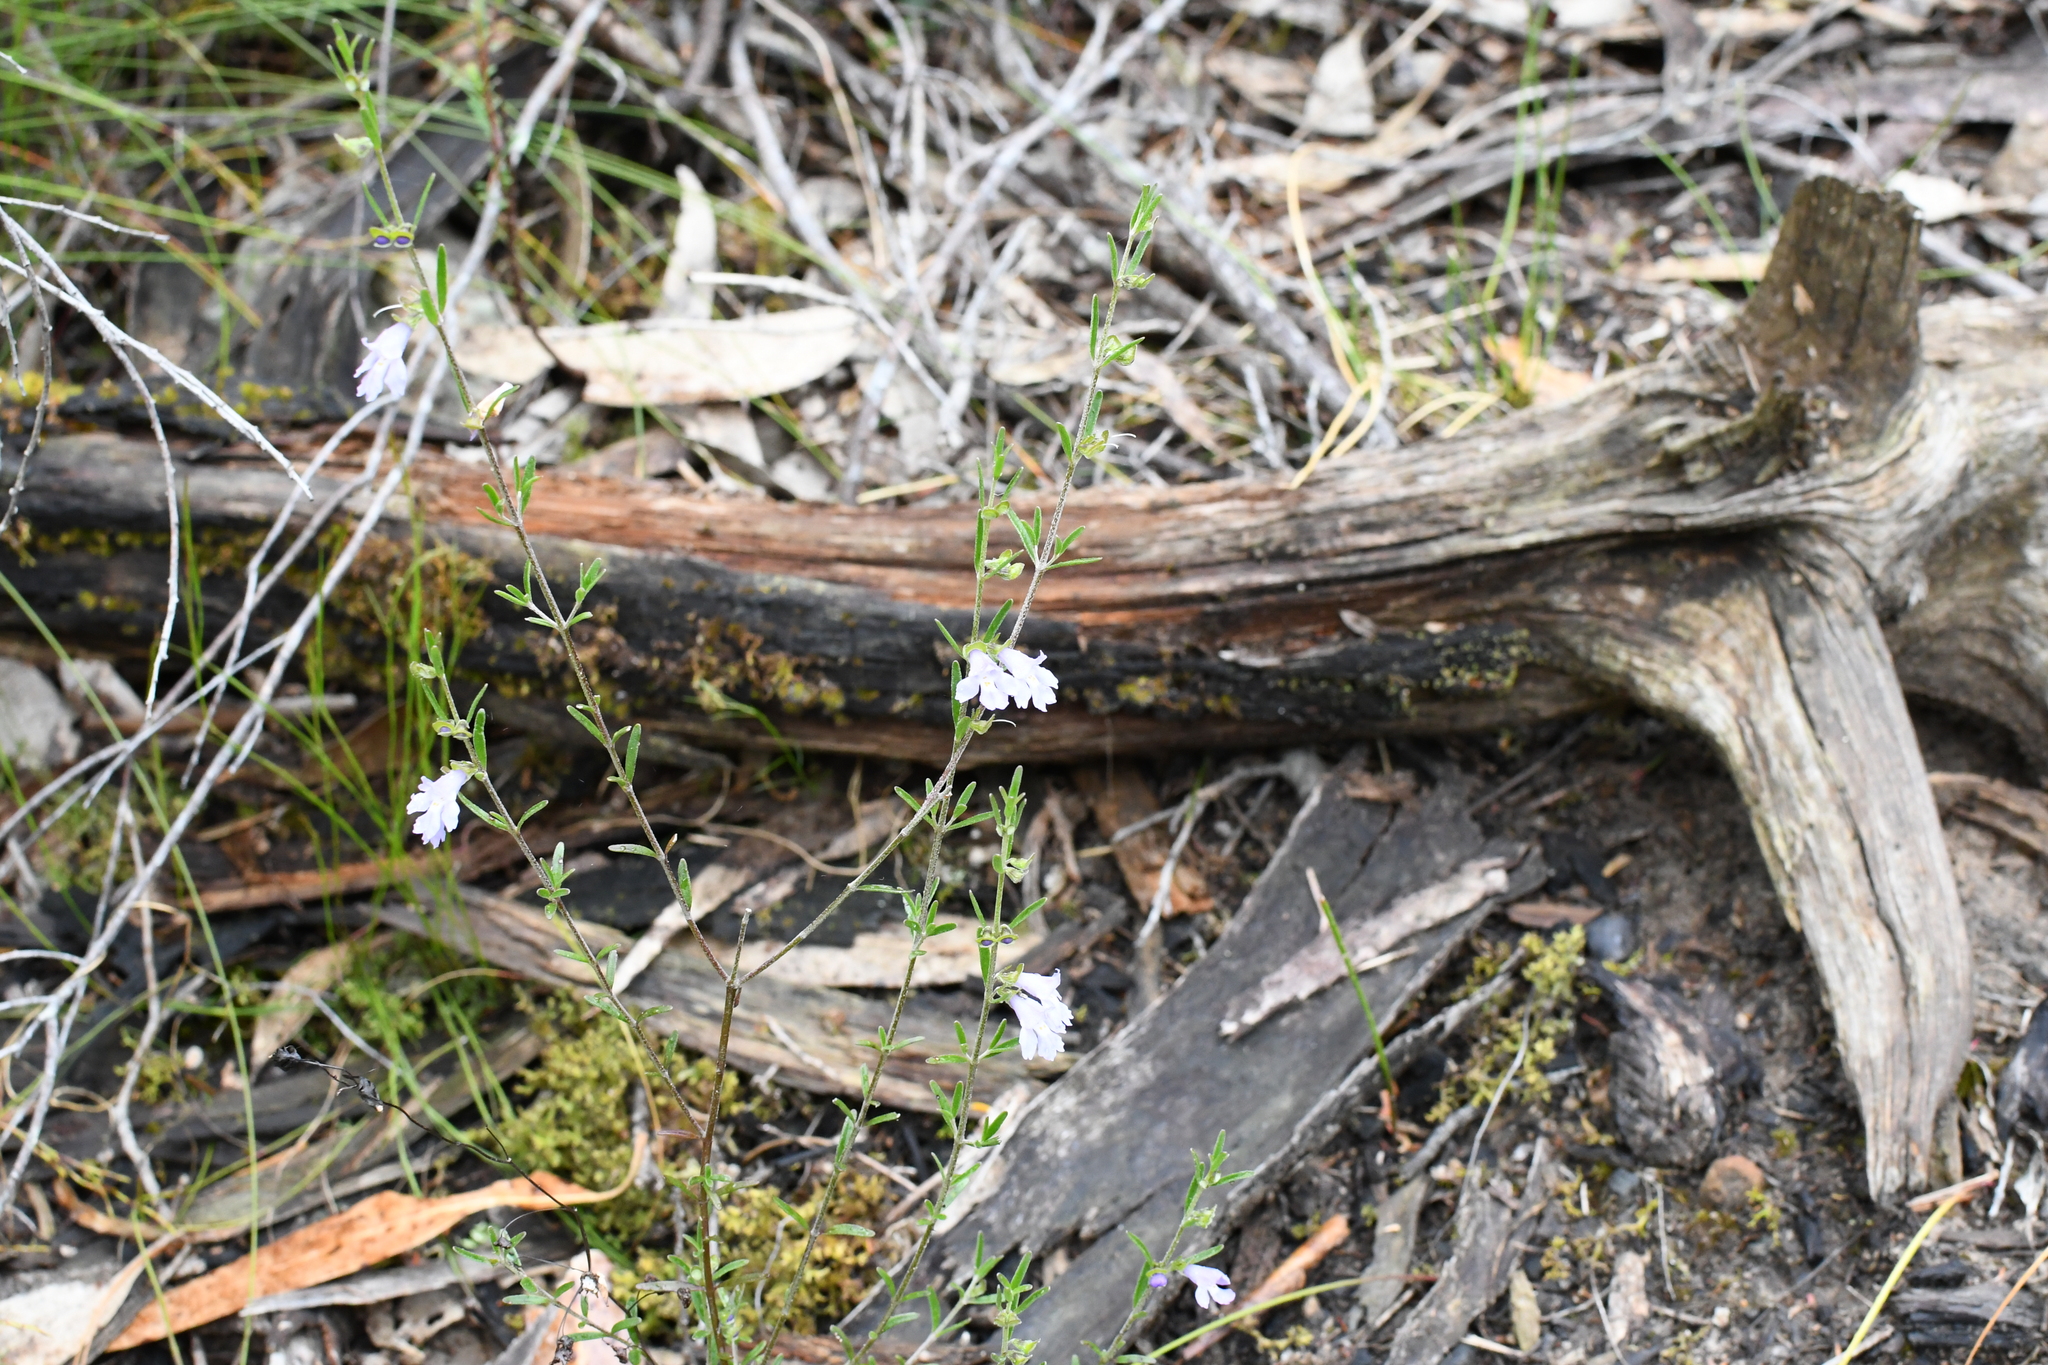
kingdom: Plantae
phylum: Tracheophyta
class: Magnoliopsida
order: Lamiales
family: Lamiaceae
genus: Prostanthera
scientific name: Prostanthera saxicola
